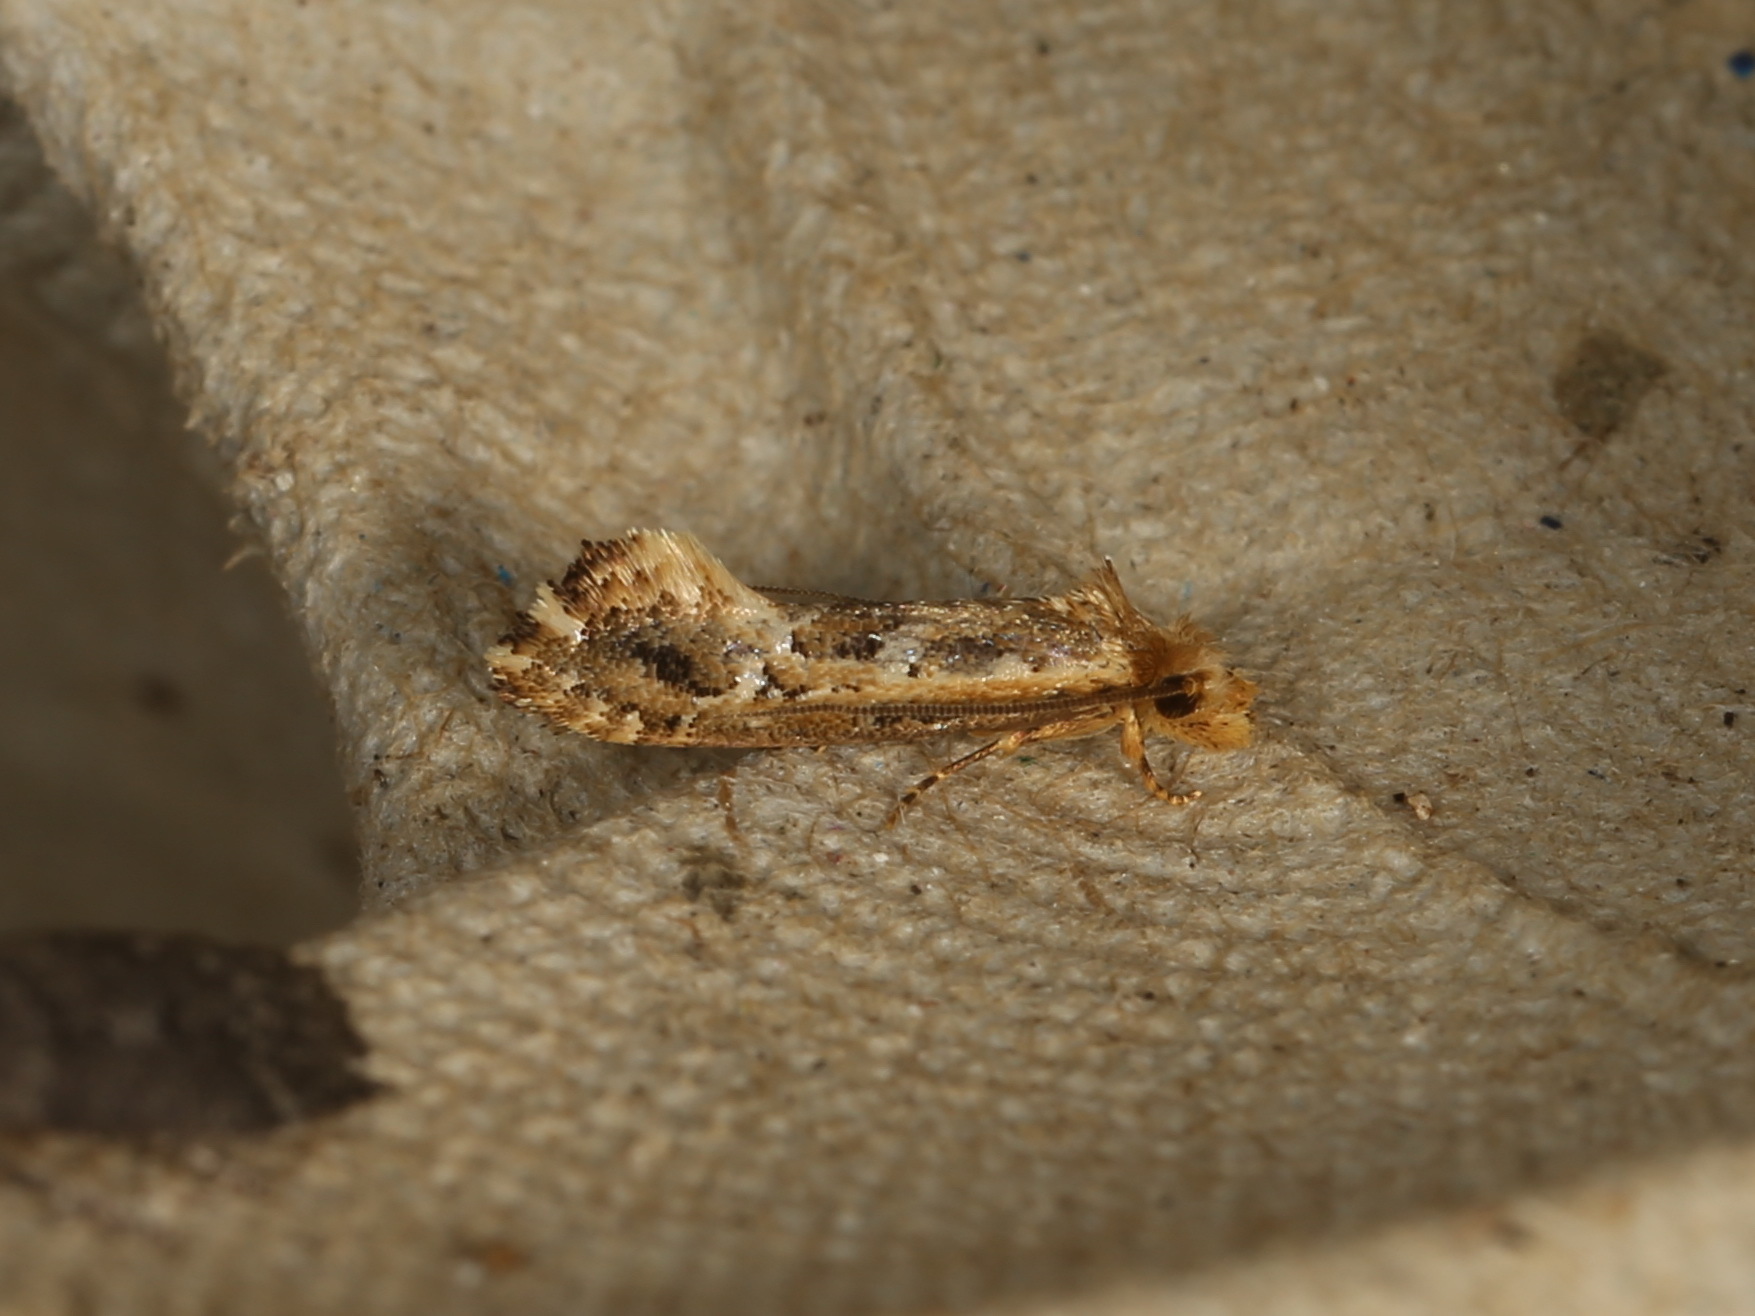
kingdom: Animalia
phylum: Arthropoda
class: Insecta
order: Lepidoptera
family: Tineidae
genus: Moerarchis
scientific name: Moerarchis inconcisella
